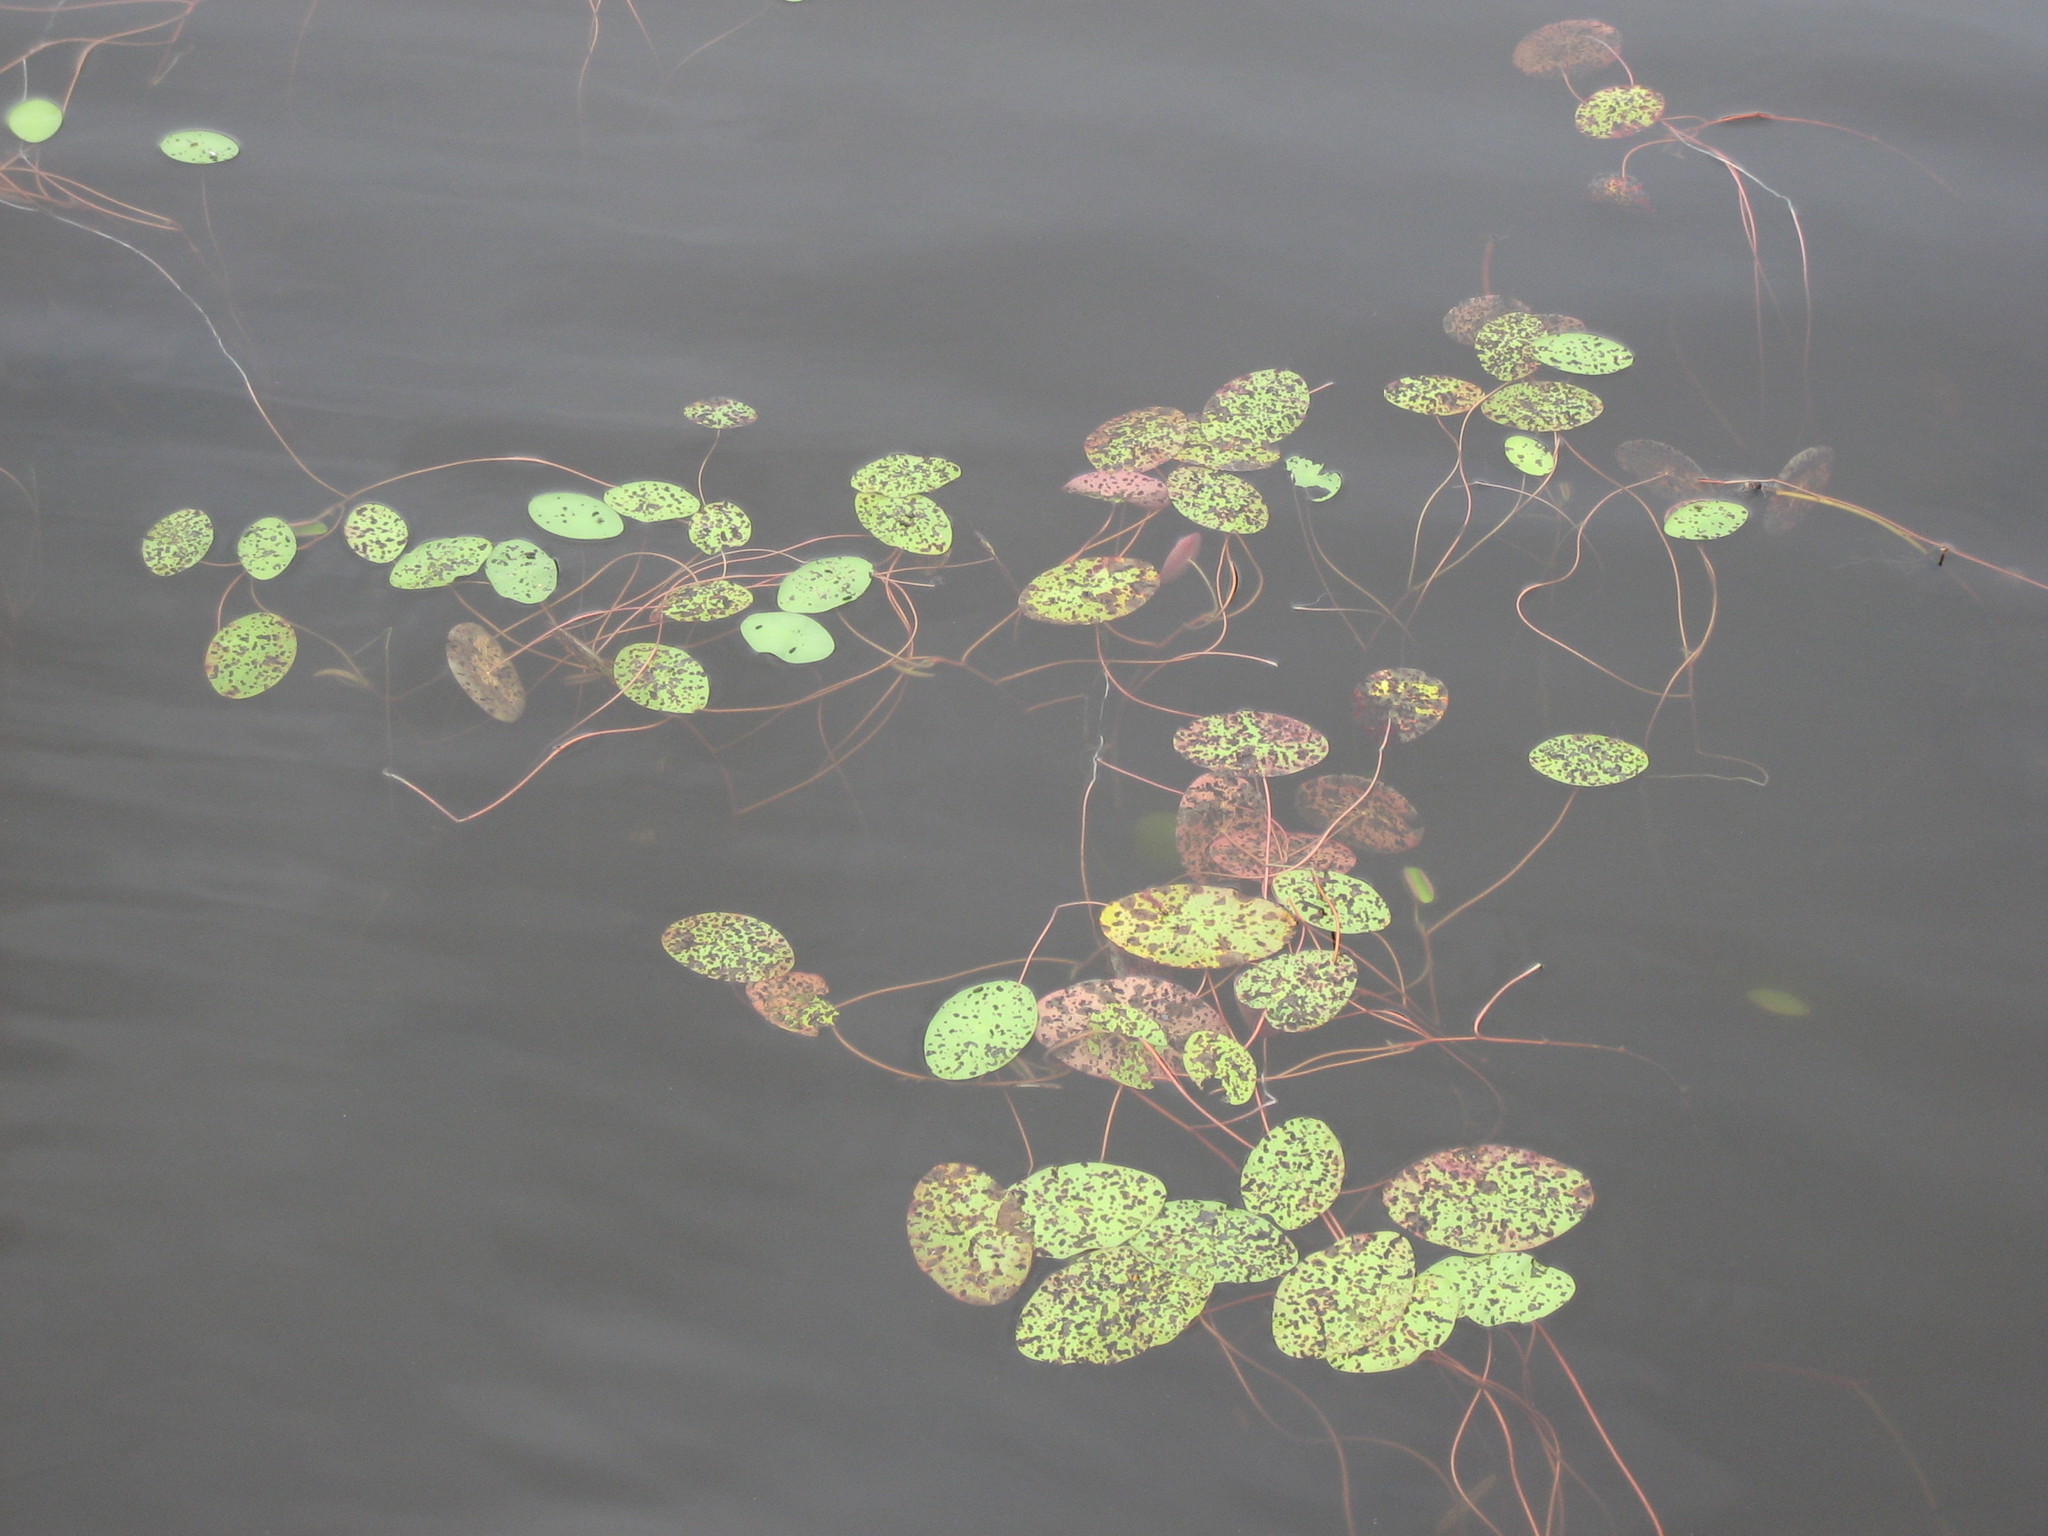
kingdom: Plantae
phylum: Tracheophyta
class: Magnoliopsida
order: Nymphaeales
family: Cabombaceae
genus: Brasenia
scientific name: Brasenia schreberi
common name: Water-shield
